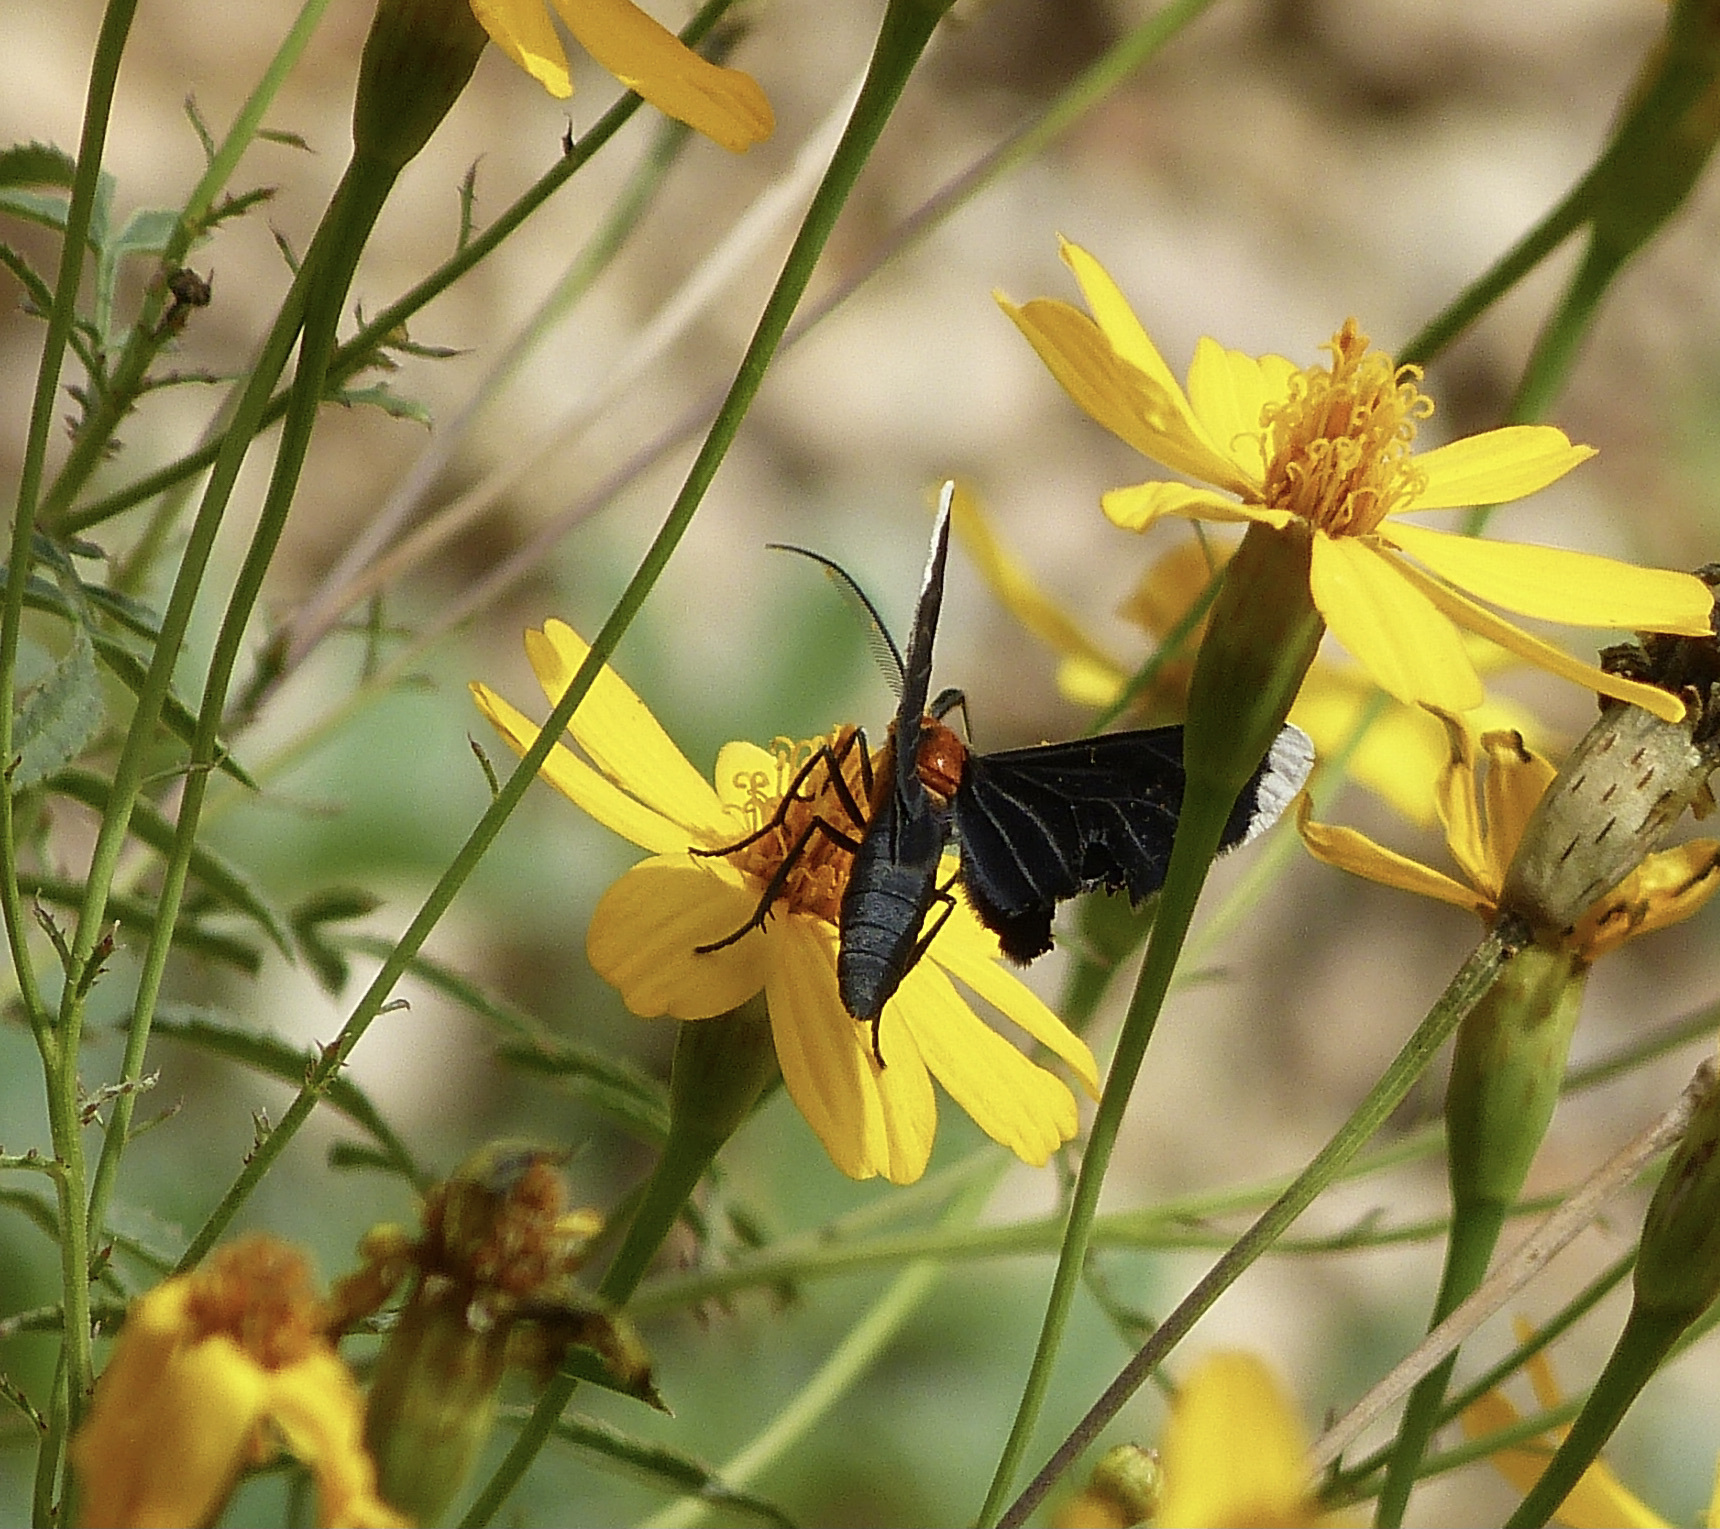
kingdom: Animalia
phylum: Arthropoda
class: Insecta
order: Lepidoptera
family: Geometridae
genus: Melanchroia
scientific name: Melanchroia chephise
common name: White-tipped black
